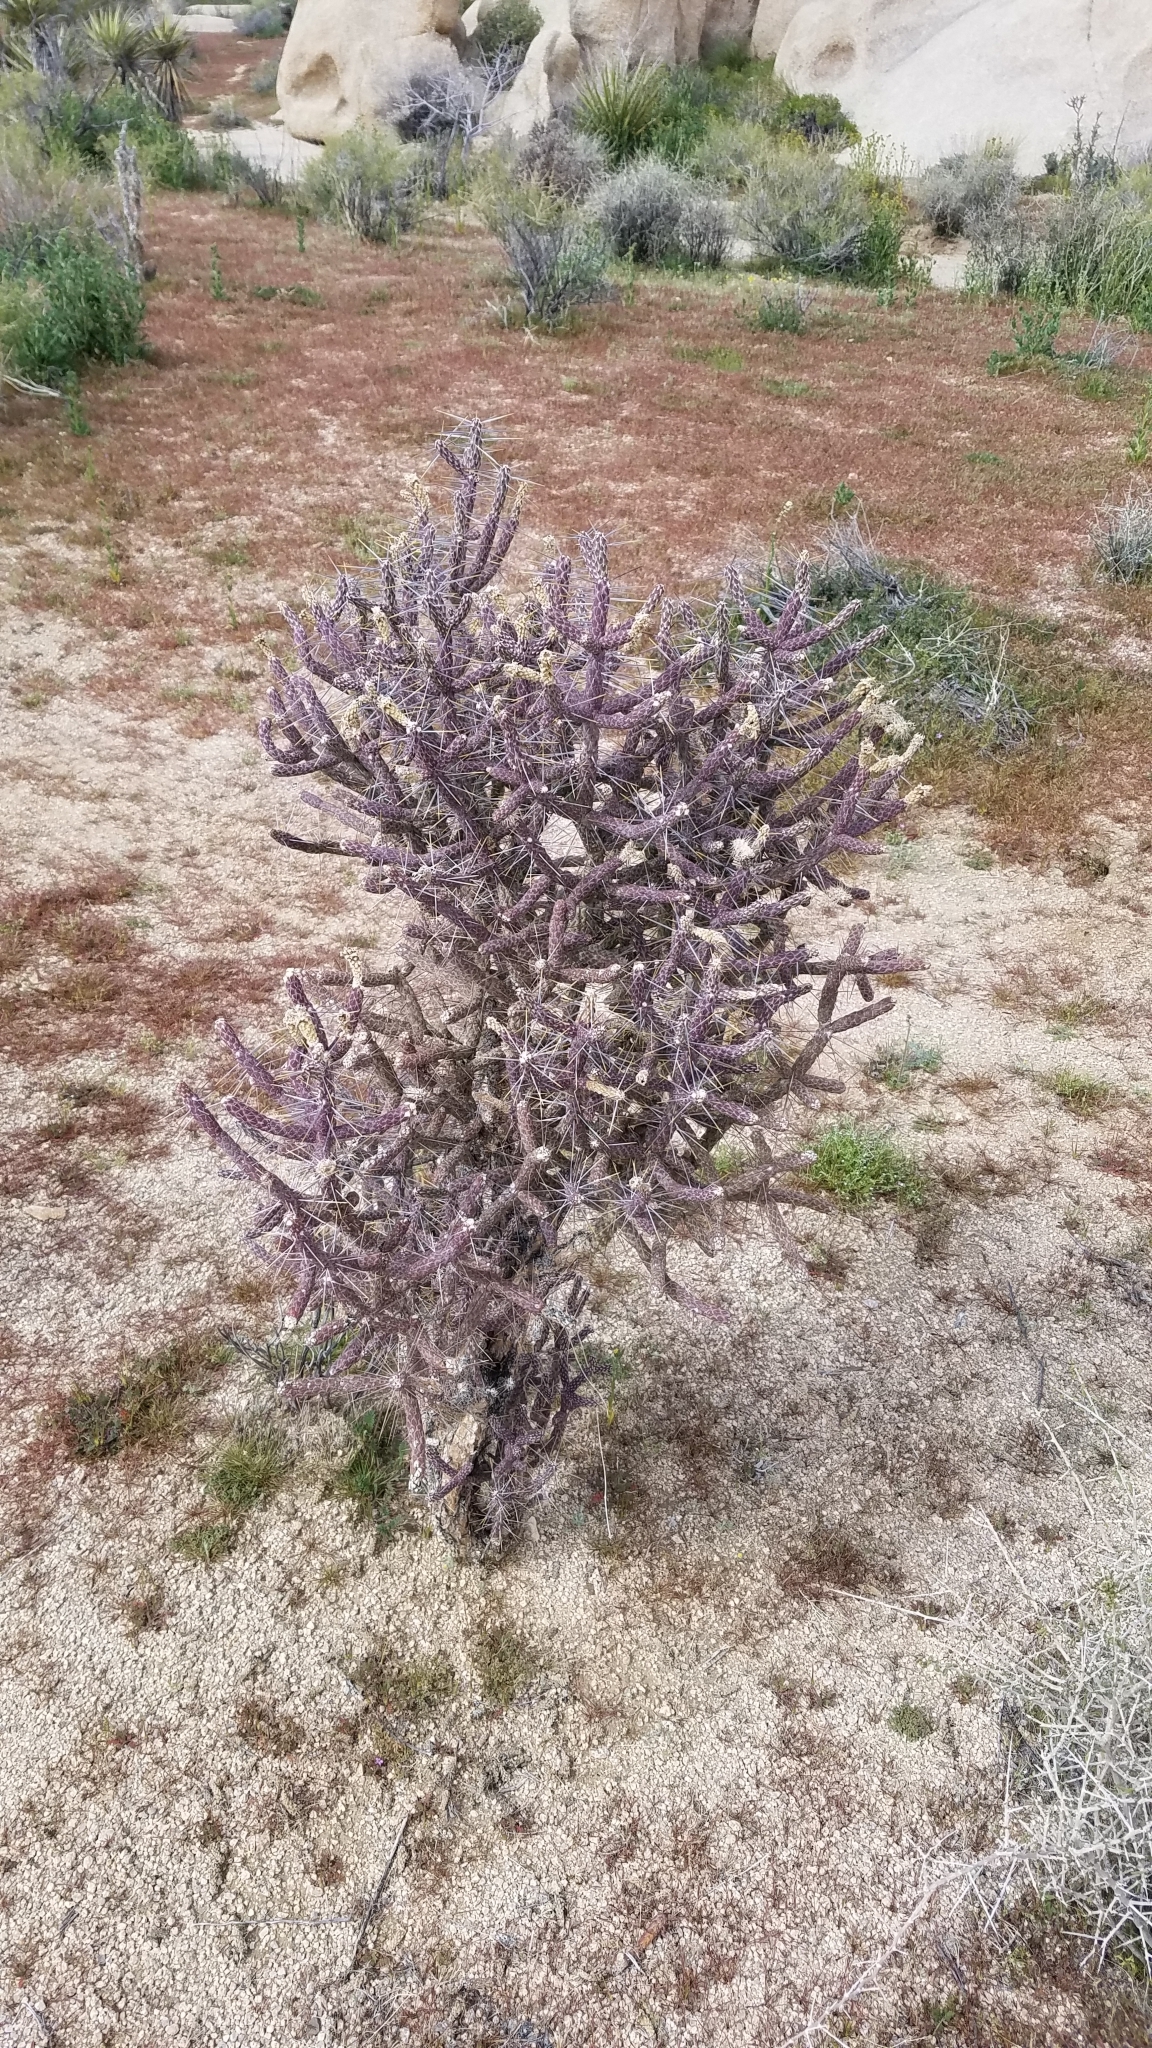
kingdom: Plantae
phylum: Tracheophyta
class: Magnoliopsida
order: Caryophyllales
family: Cactaceae
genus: Cylindropuntia
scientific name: Cylindropuntia ramosissima
